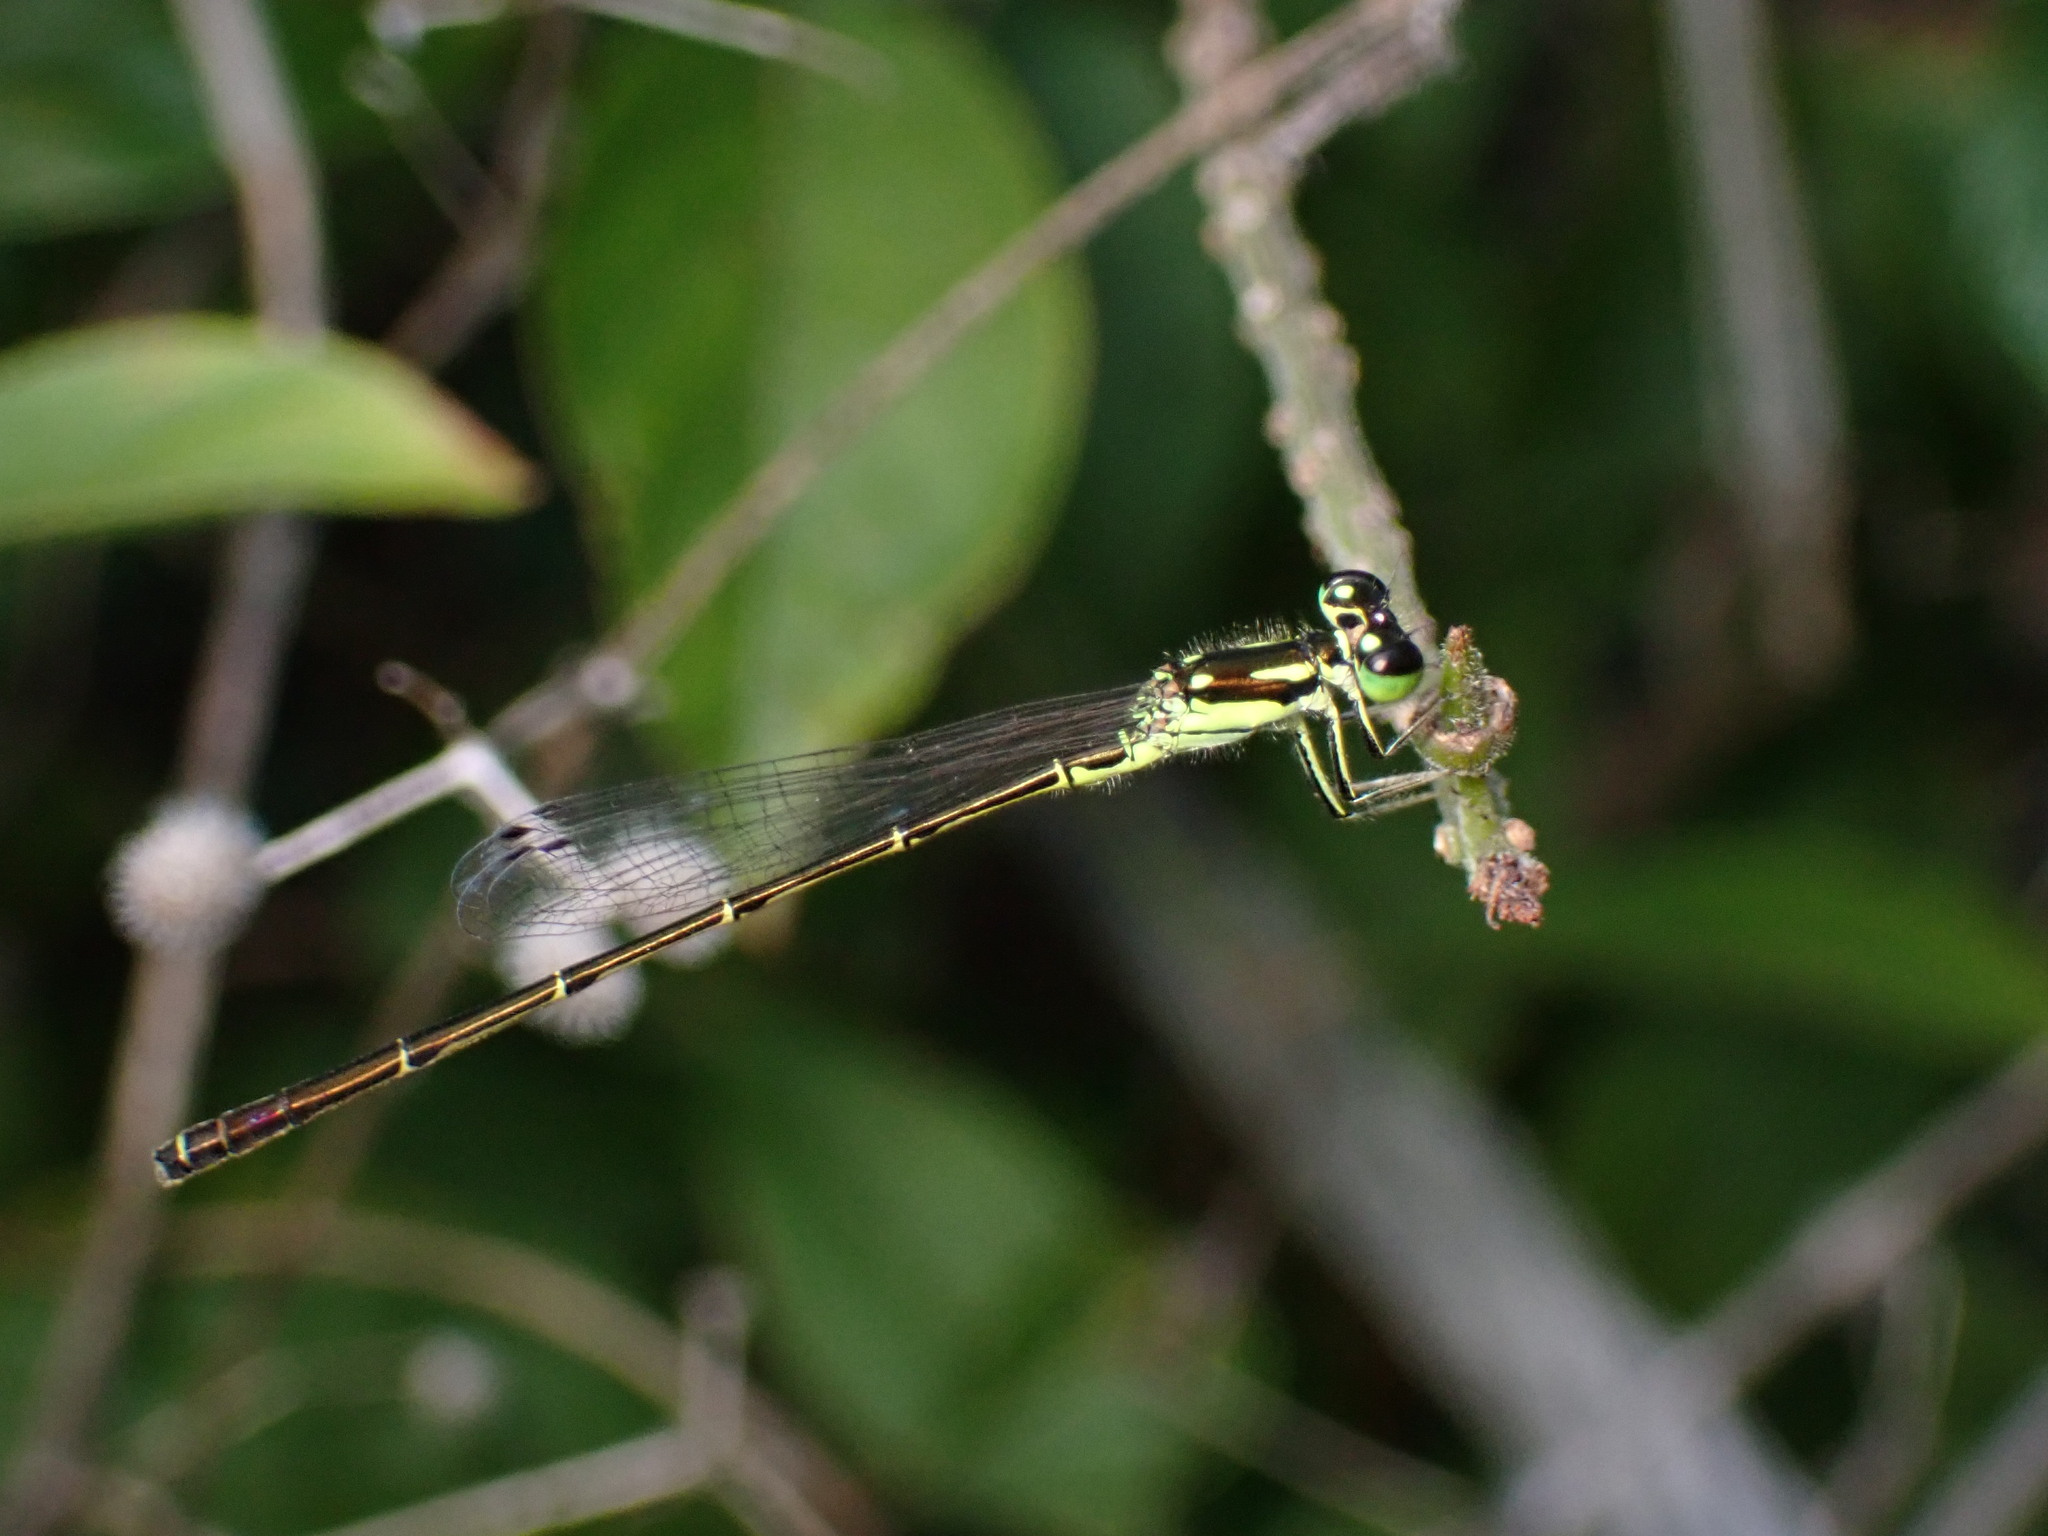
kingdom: Animalia
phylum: Arthropoda
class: Insecta
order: Odonata
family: Coenagrionidae
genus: Ischnura
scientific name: Ischnura posita
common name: Fragile forktail
